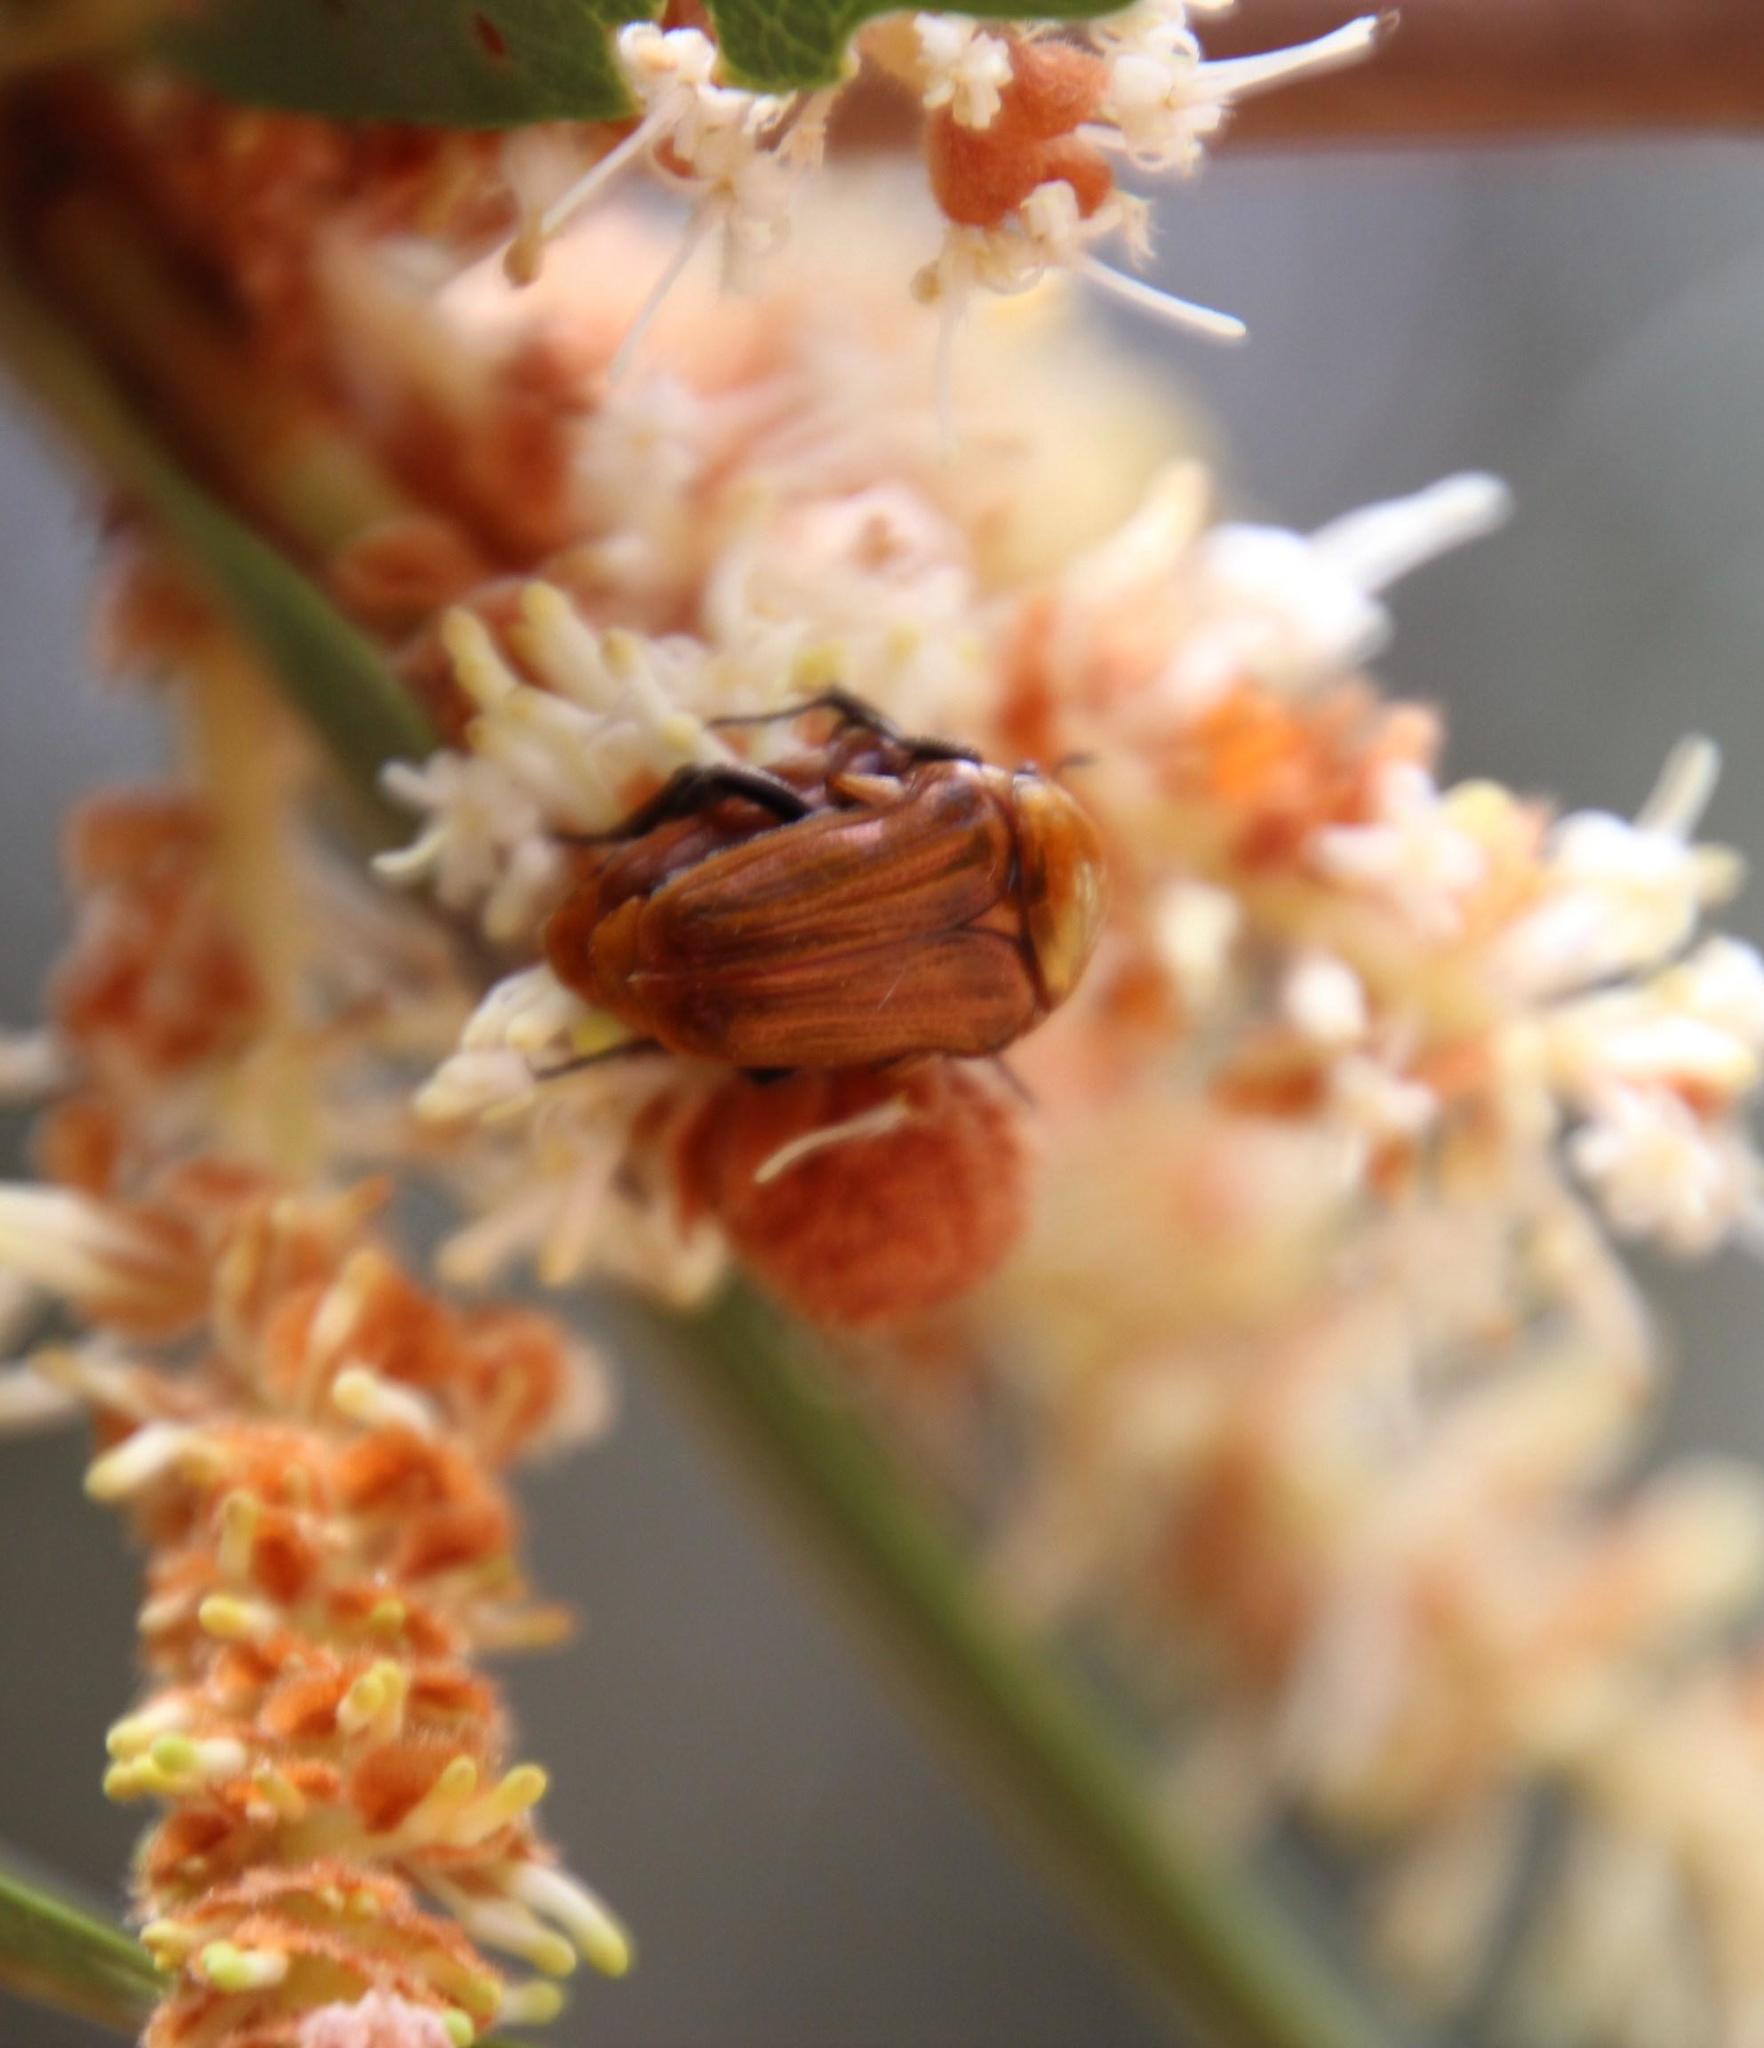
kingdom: Animalia
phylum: Arthropoda
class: Insecta
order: Coleoptera
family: Scarabaeidae
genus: Leucocelis
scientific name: Leucocelis rubra
